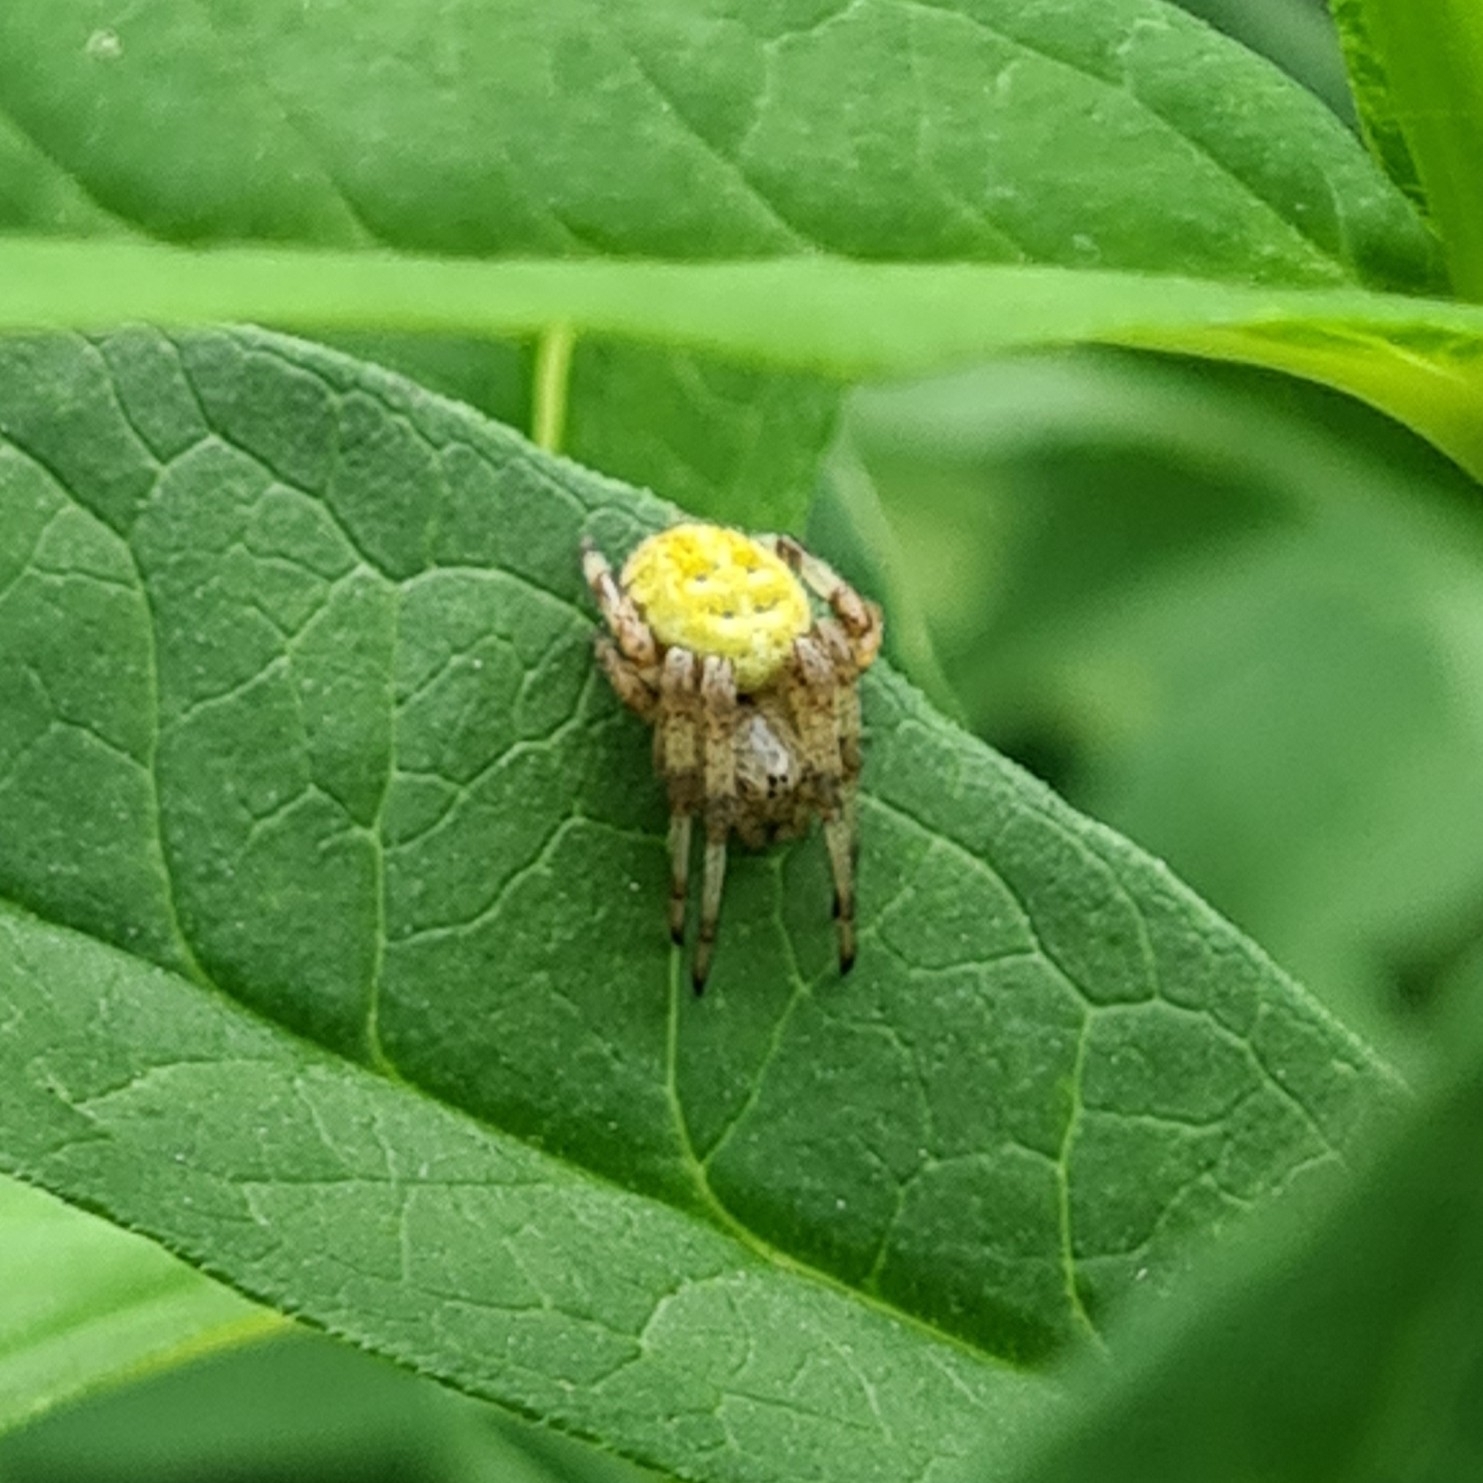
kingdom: Animalia
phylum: Arthropoda
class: Arachnida
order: Araneae
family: Araneidae
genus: Araneus
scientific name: Araneus quadratus
